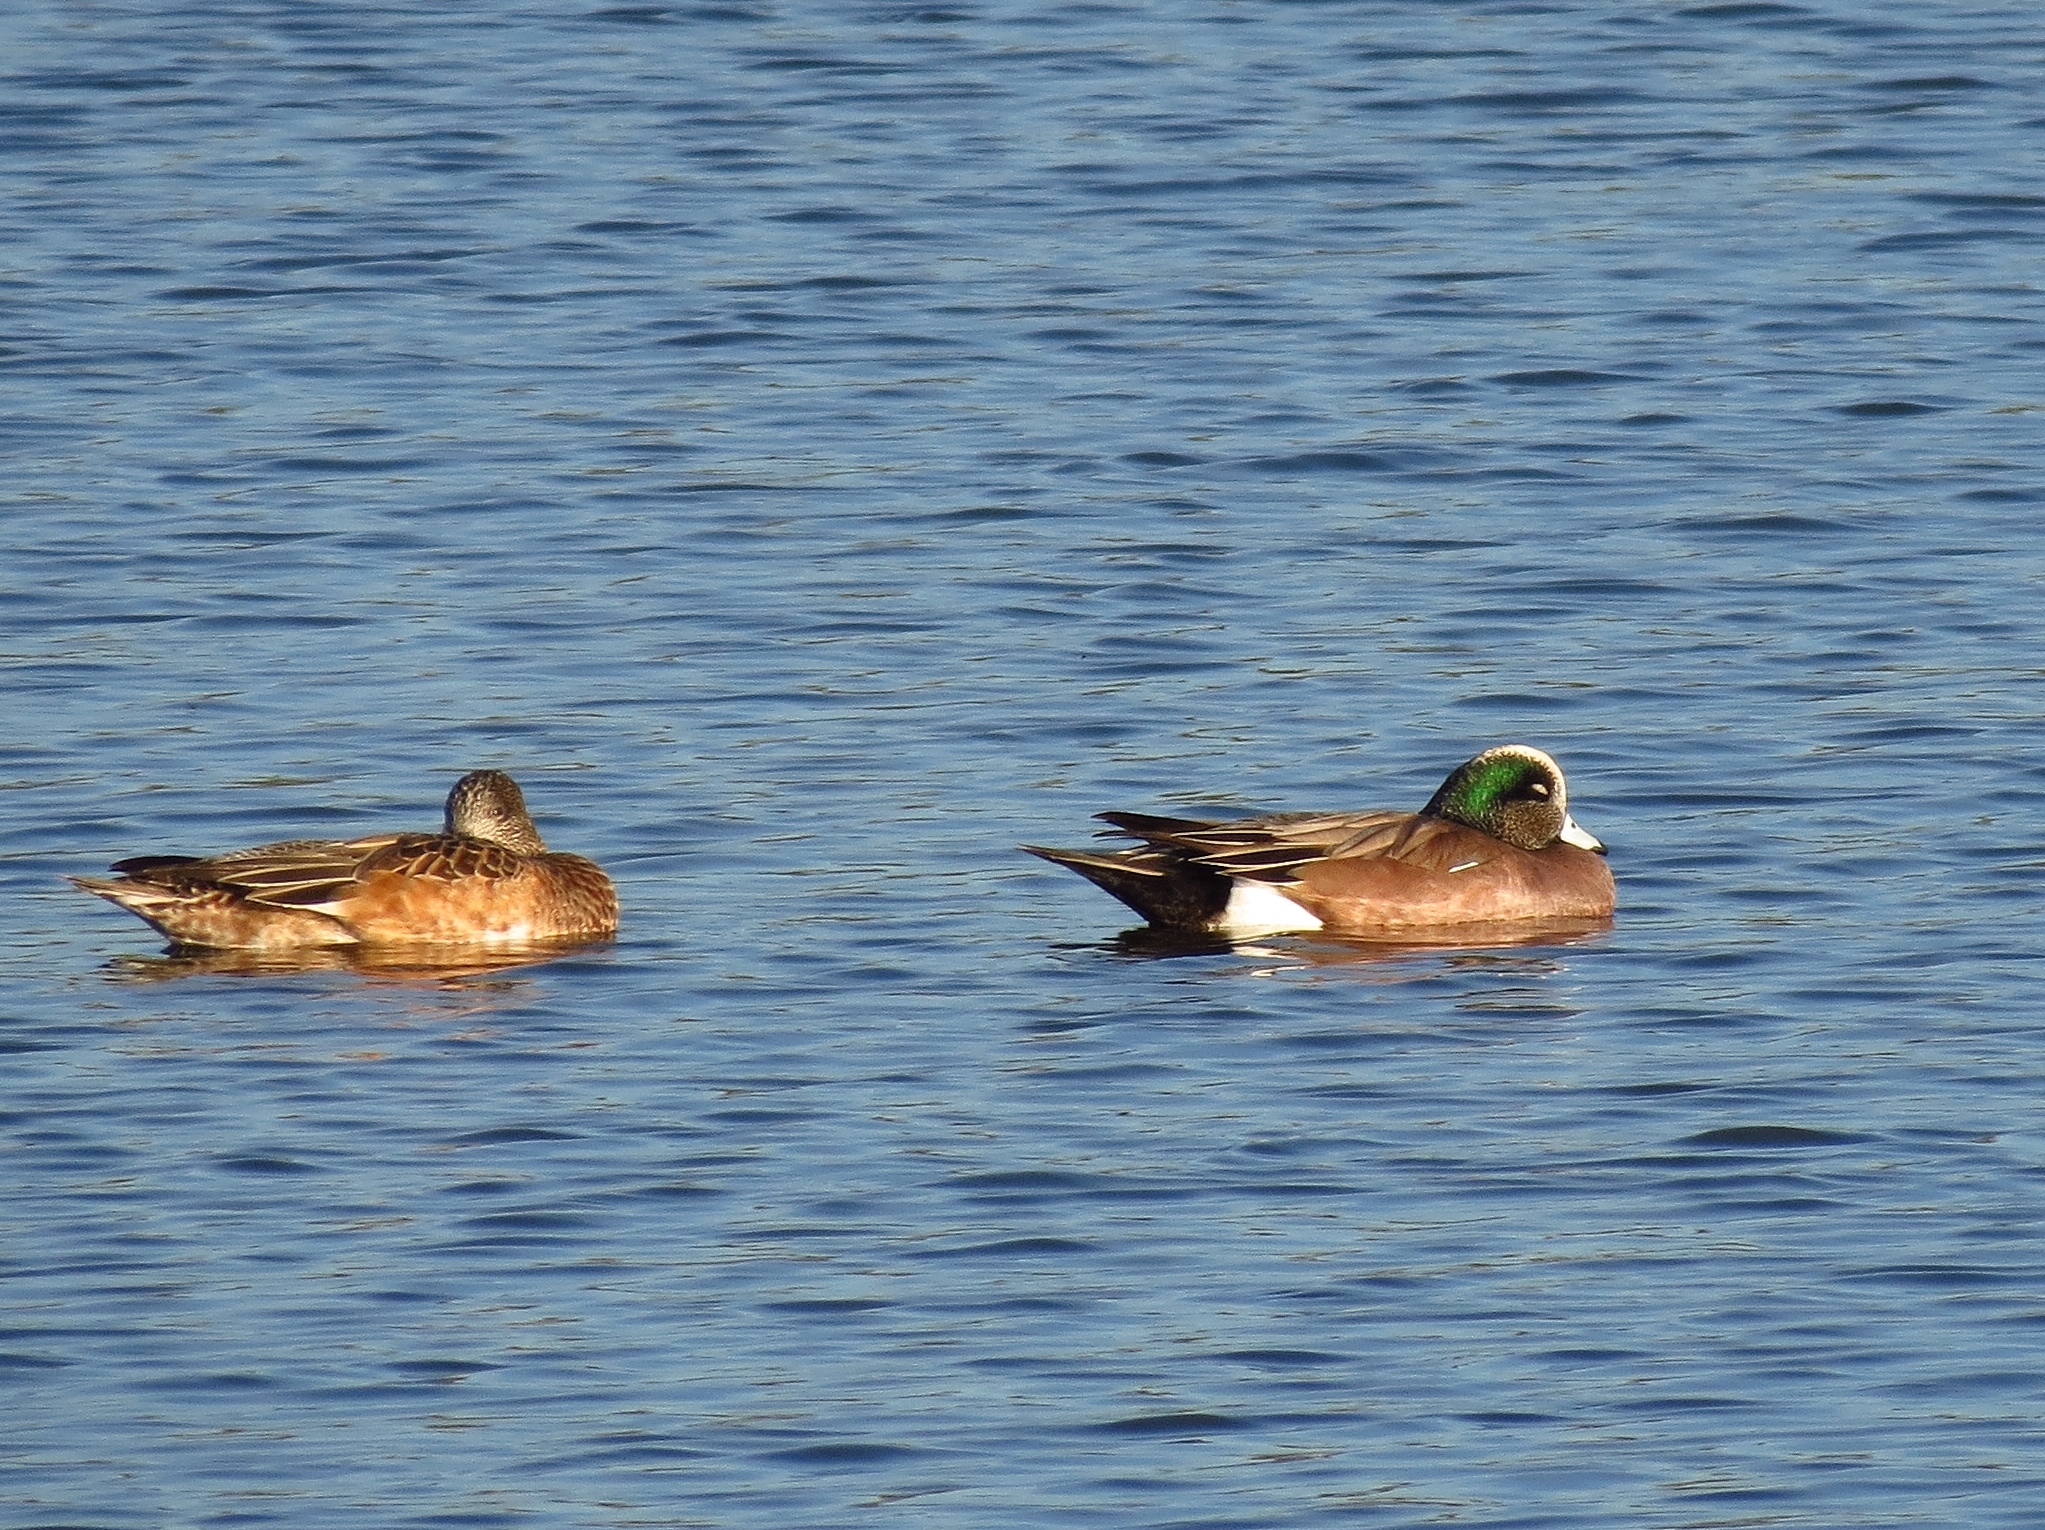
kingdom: Animalia
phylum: Chordata
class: Aves
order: Anseriformes
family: Anatidae
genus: Mareca
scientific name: Mareca americana
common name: American wigeon
